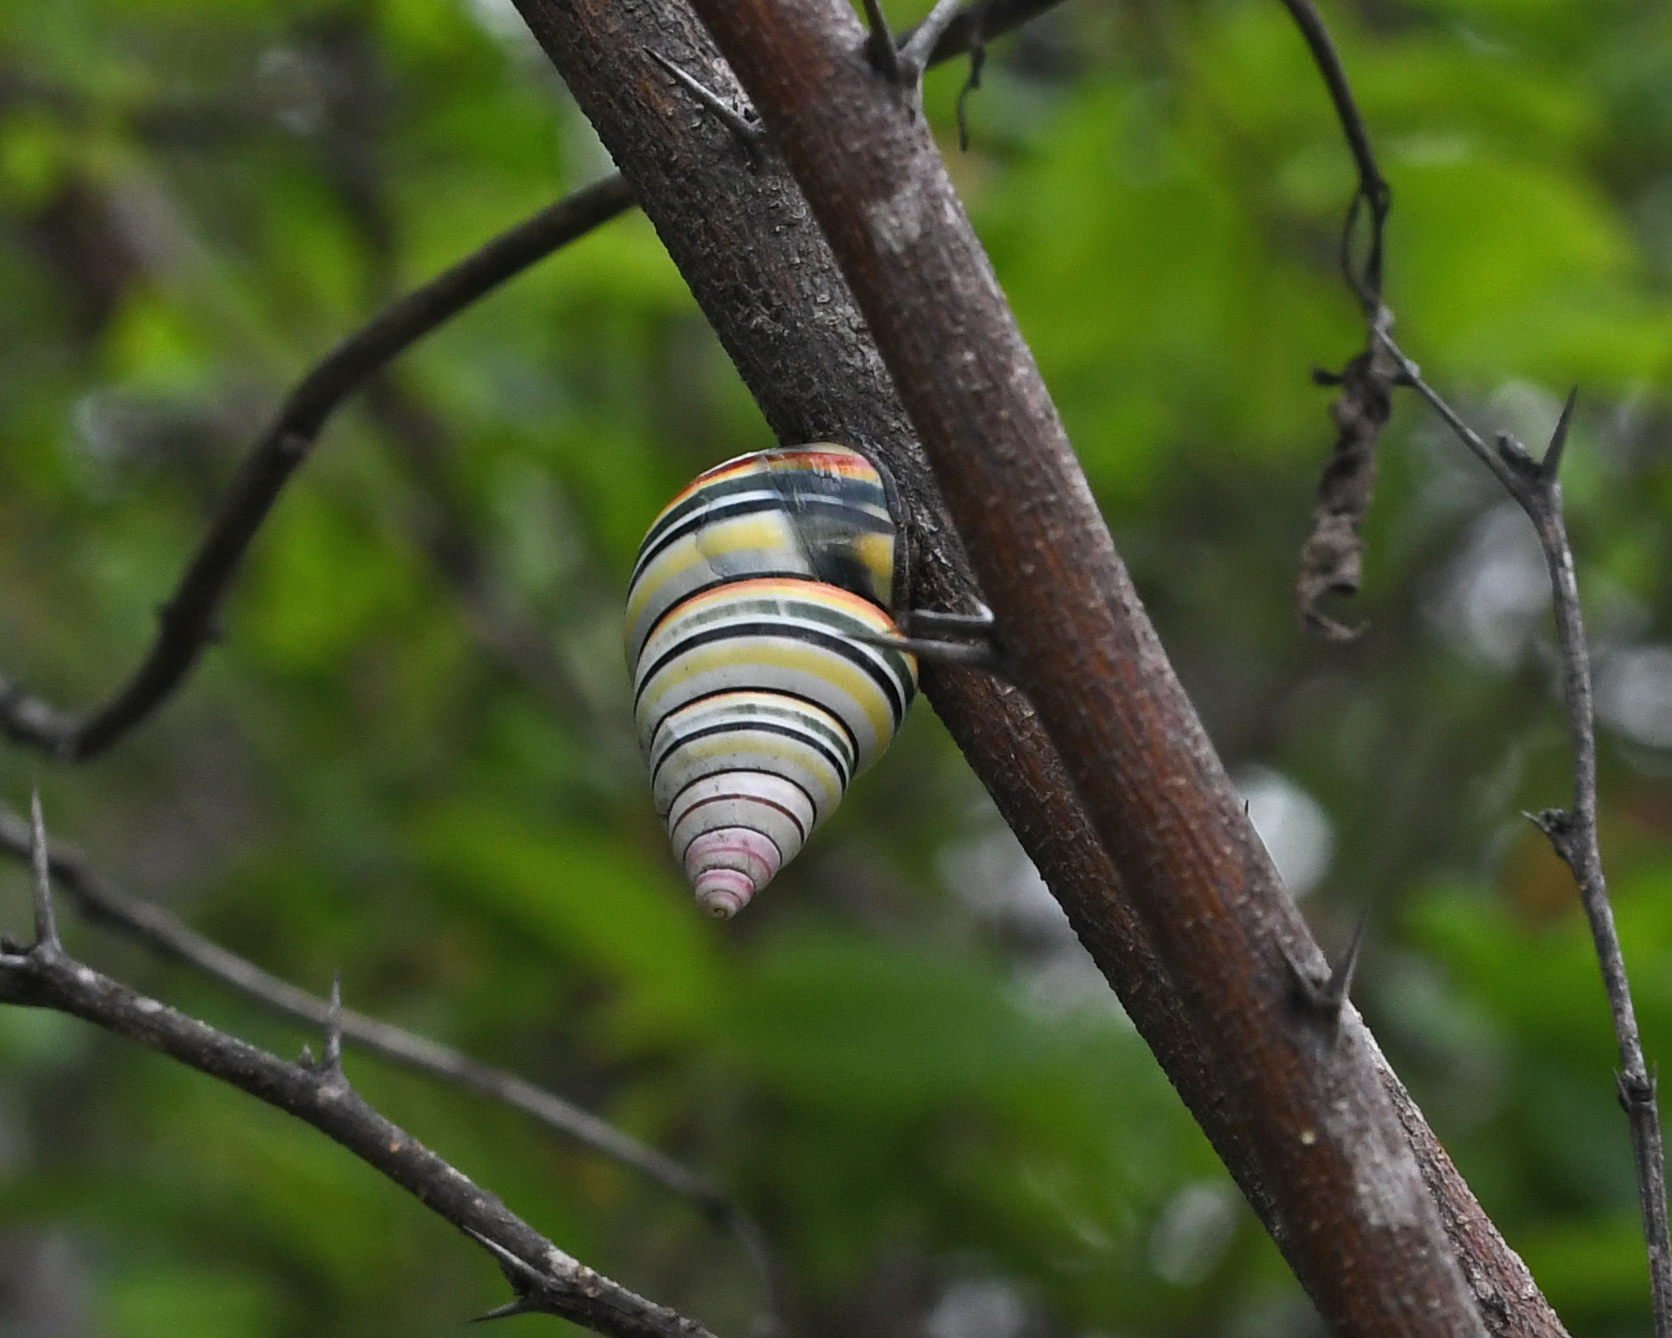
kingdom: Animalia
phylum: Mollusca
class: Gastropoda
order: Stylommatophora
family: Orthalicidae
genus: Liguus
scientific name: Liguus virgineus
